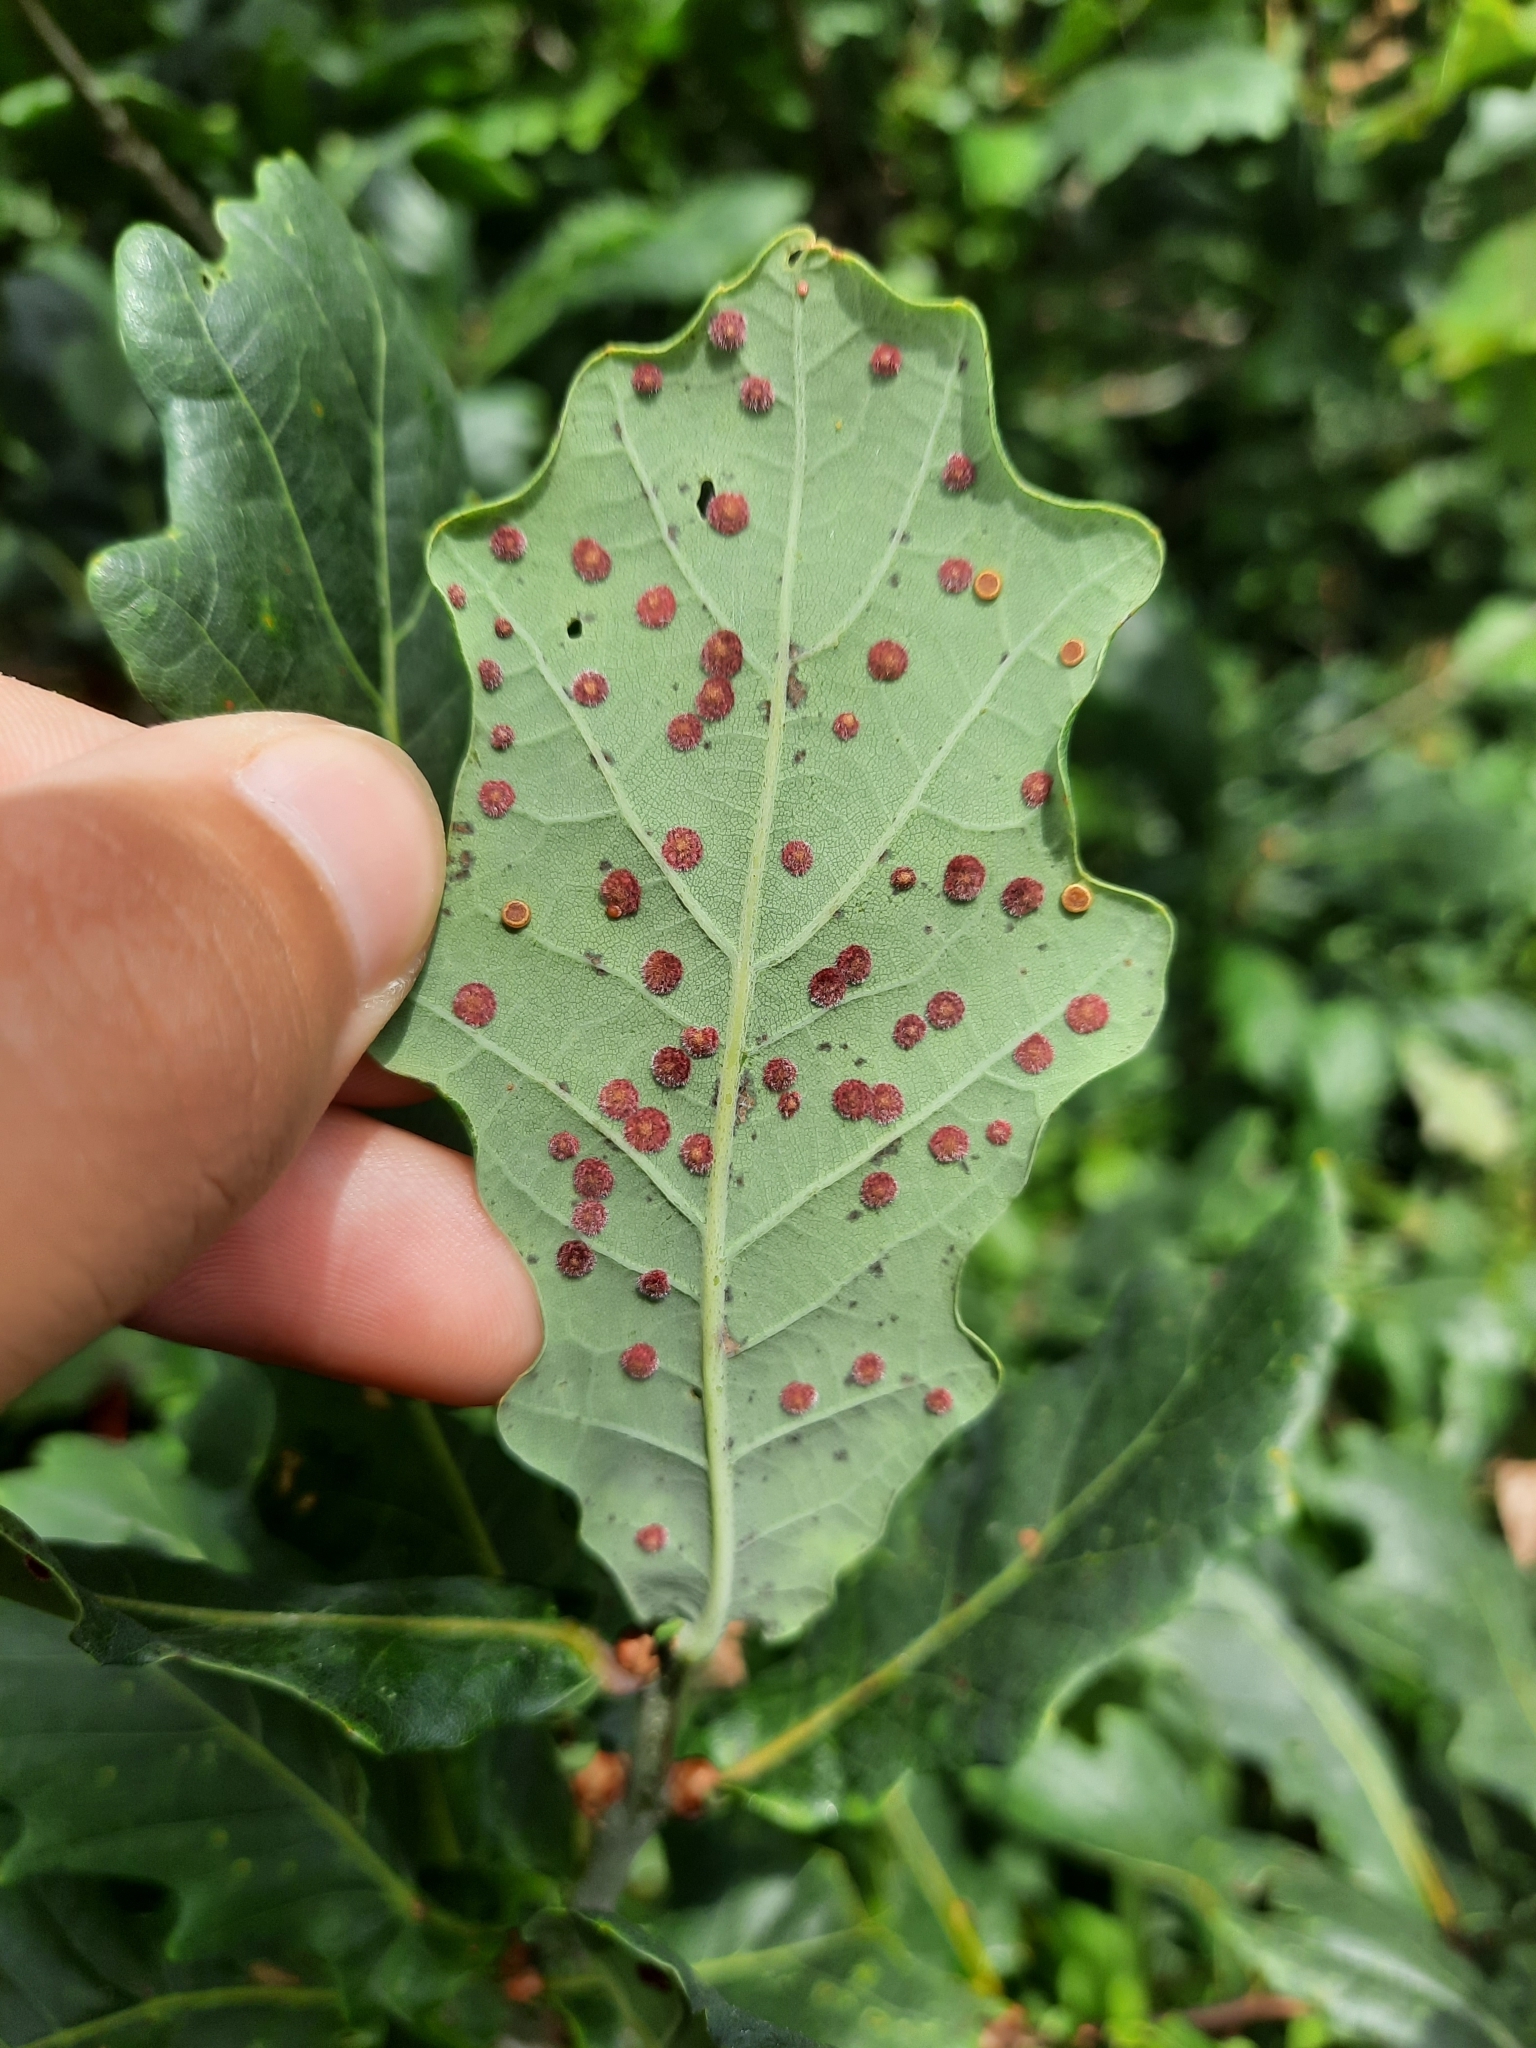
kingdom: Animalia
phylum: Arthropoda
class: Insecta
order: Hymenoptera
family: Cynipidae
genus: Neuroterus
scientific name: Neuroterus quercusbaccarum
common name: Common spangle gall
